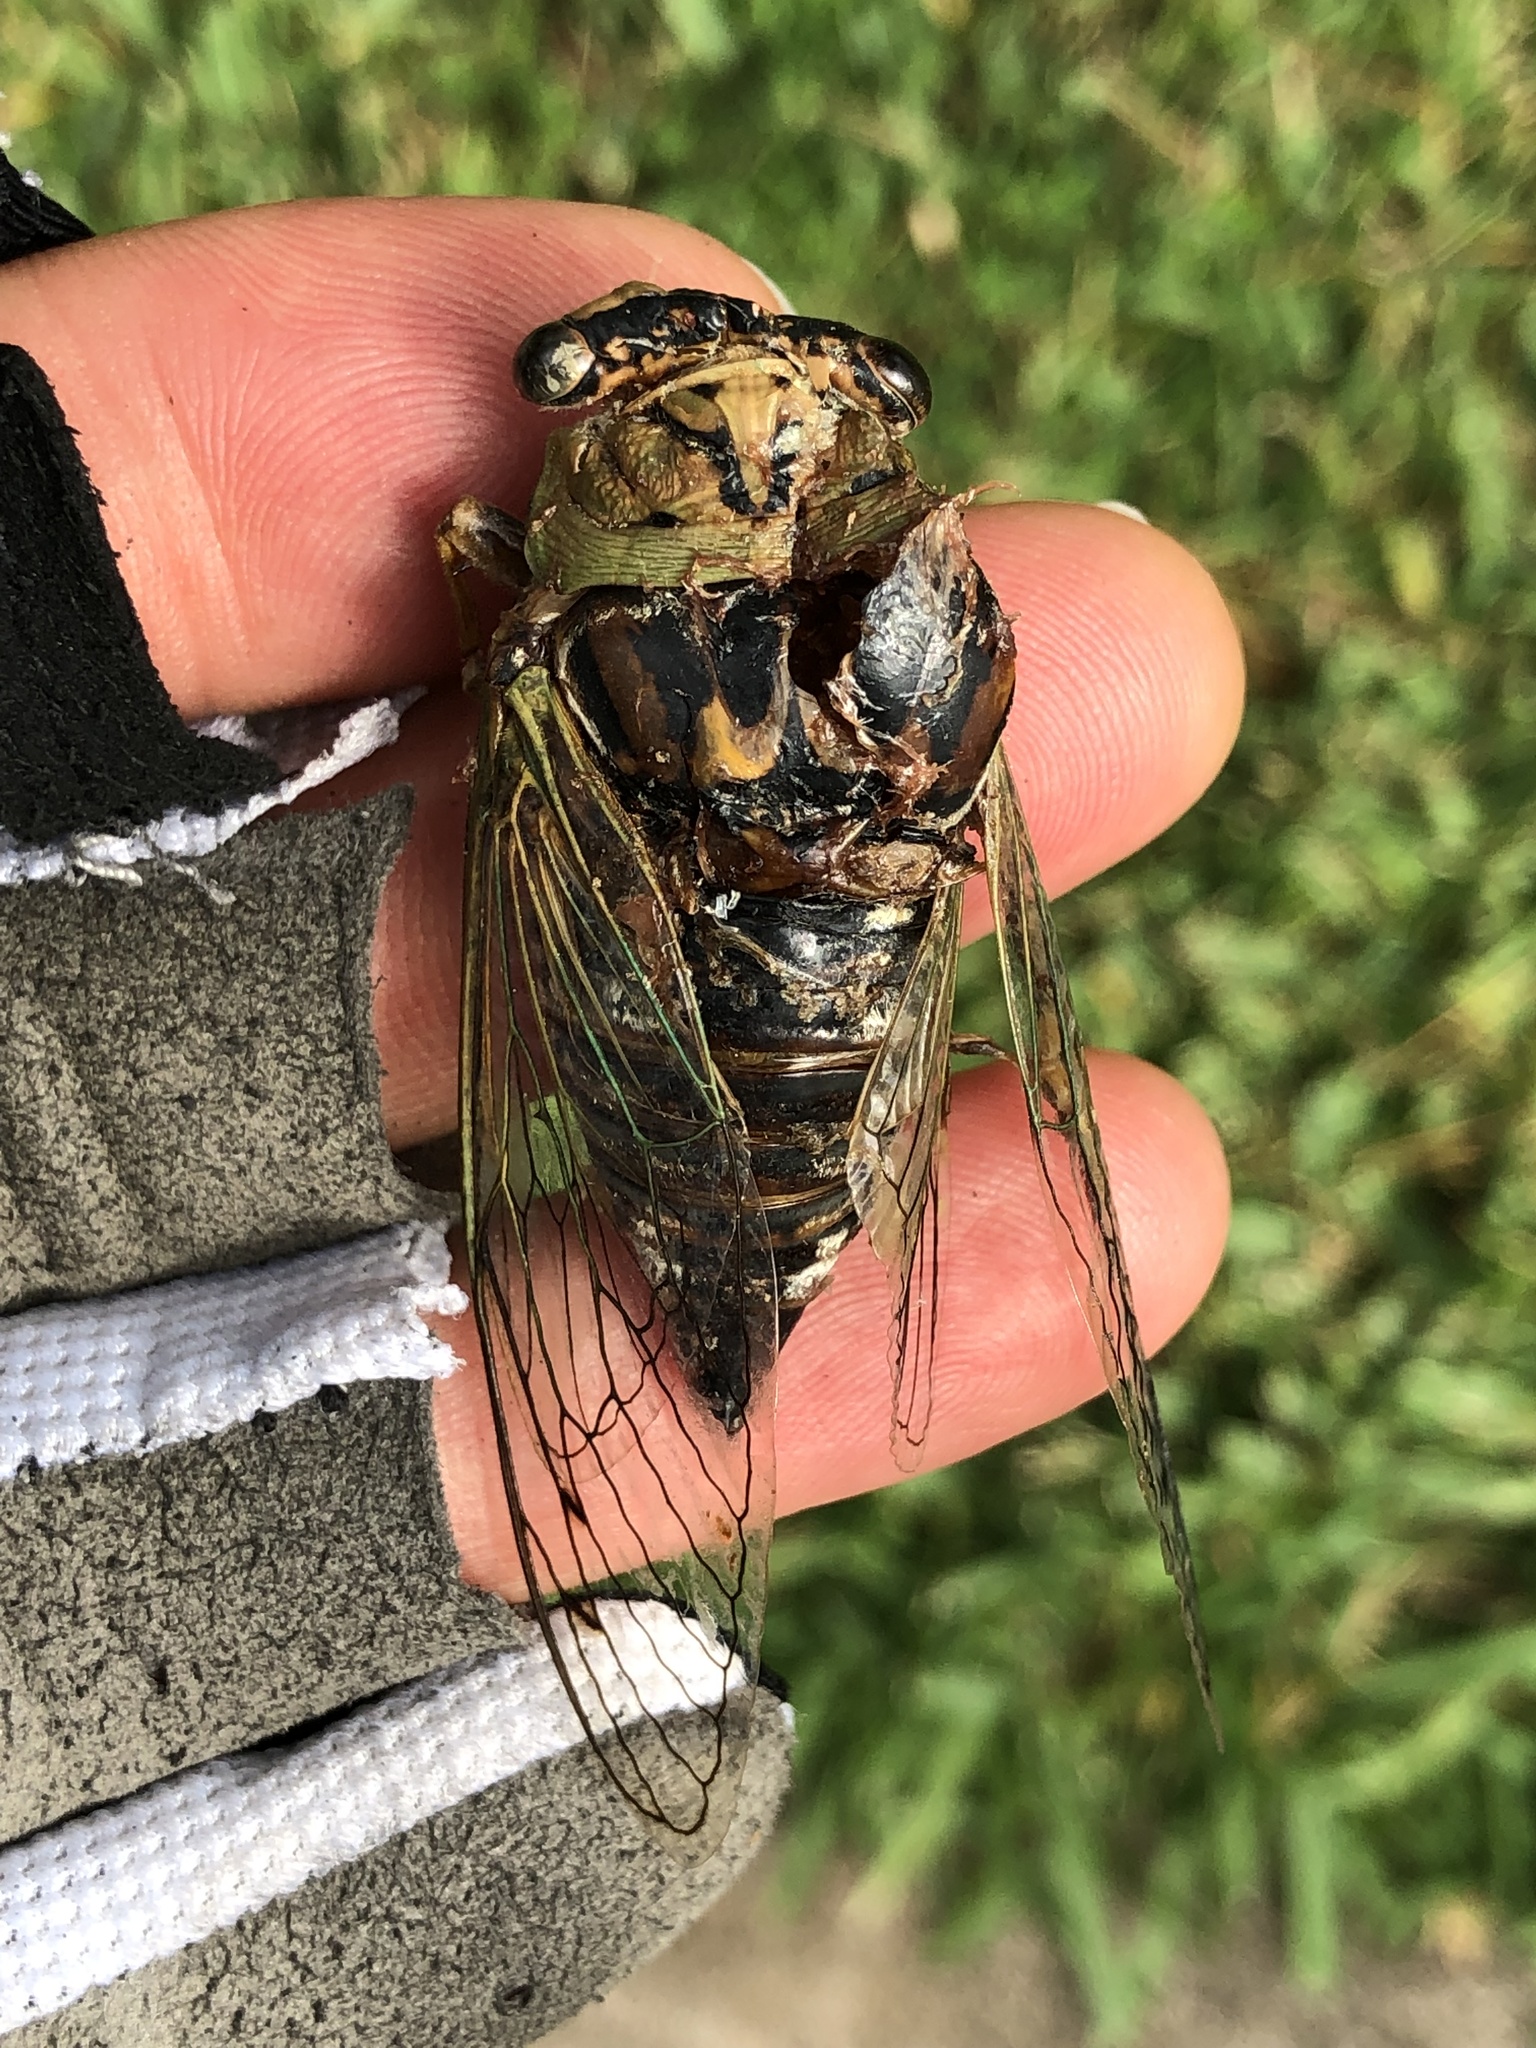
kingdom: Animalia
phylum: Arthropoda
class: Insecta
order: Hemiptera
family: Cicadidae
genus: Megatibicen
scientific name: Megatibicen resh
